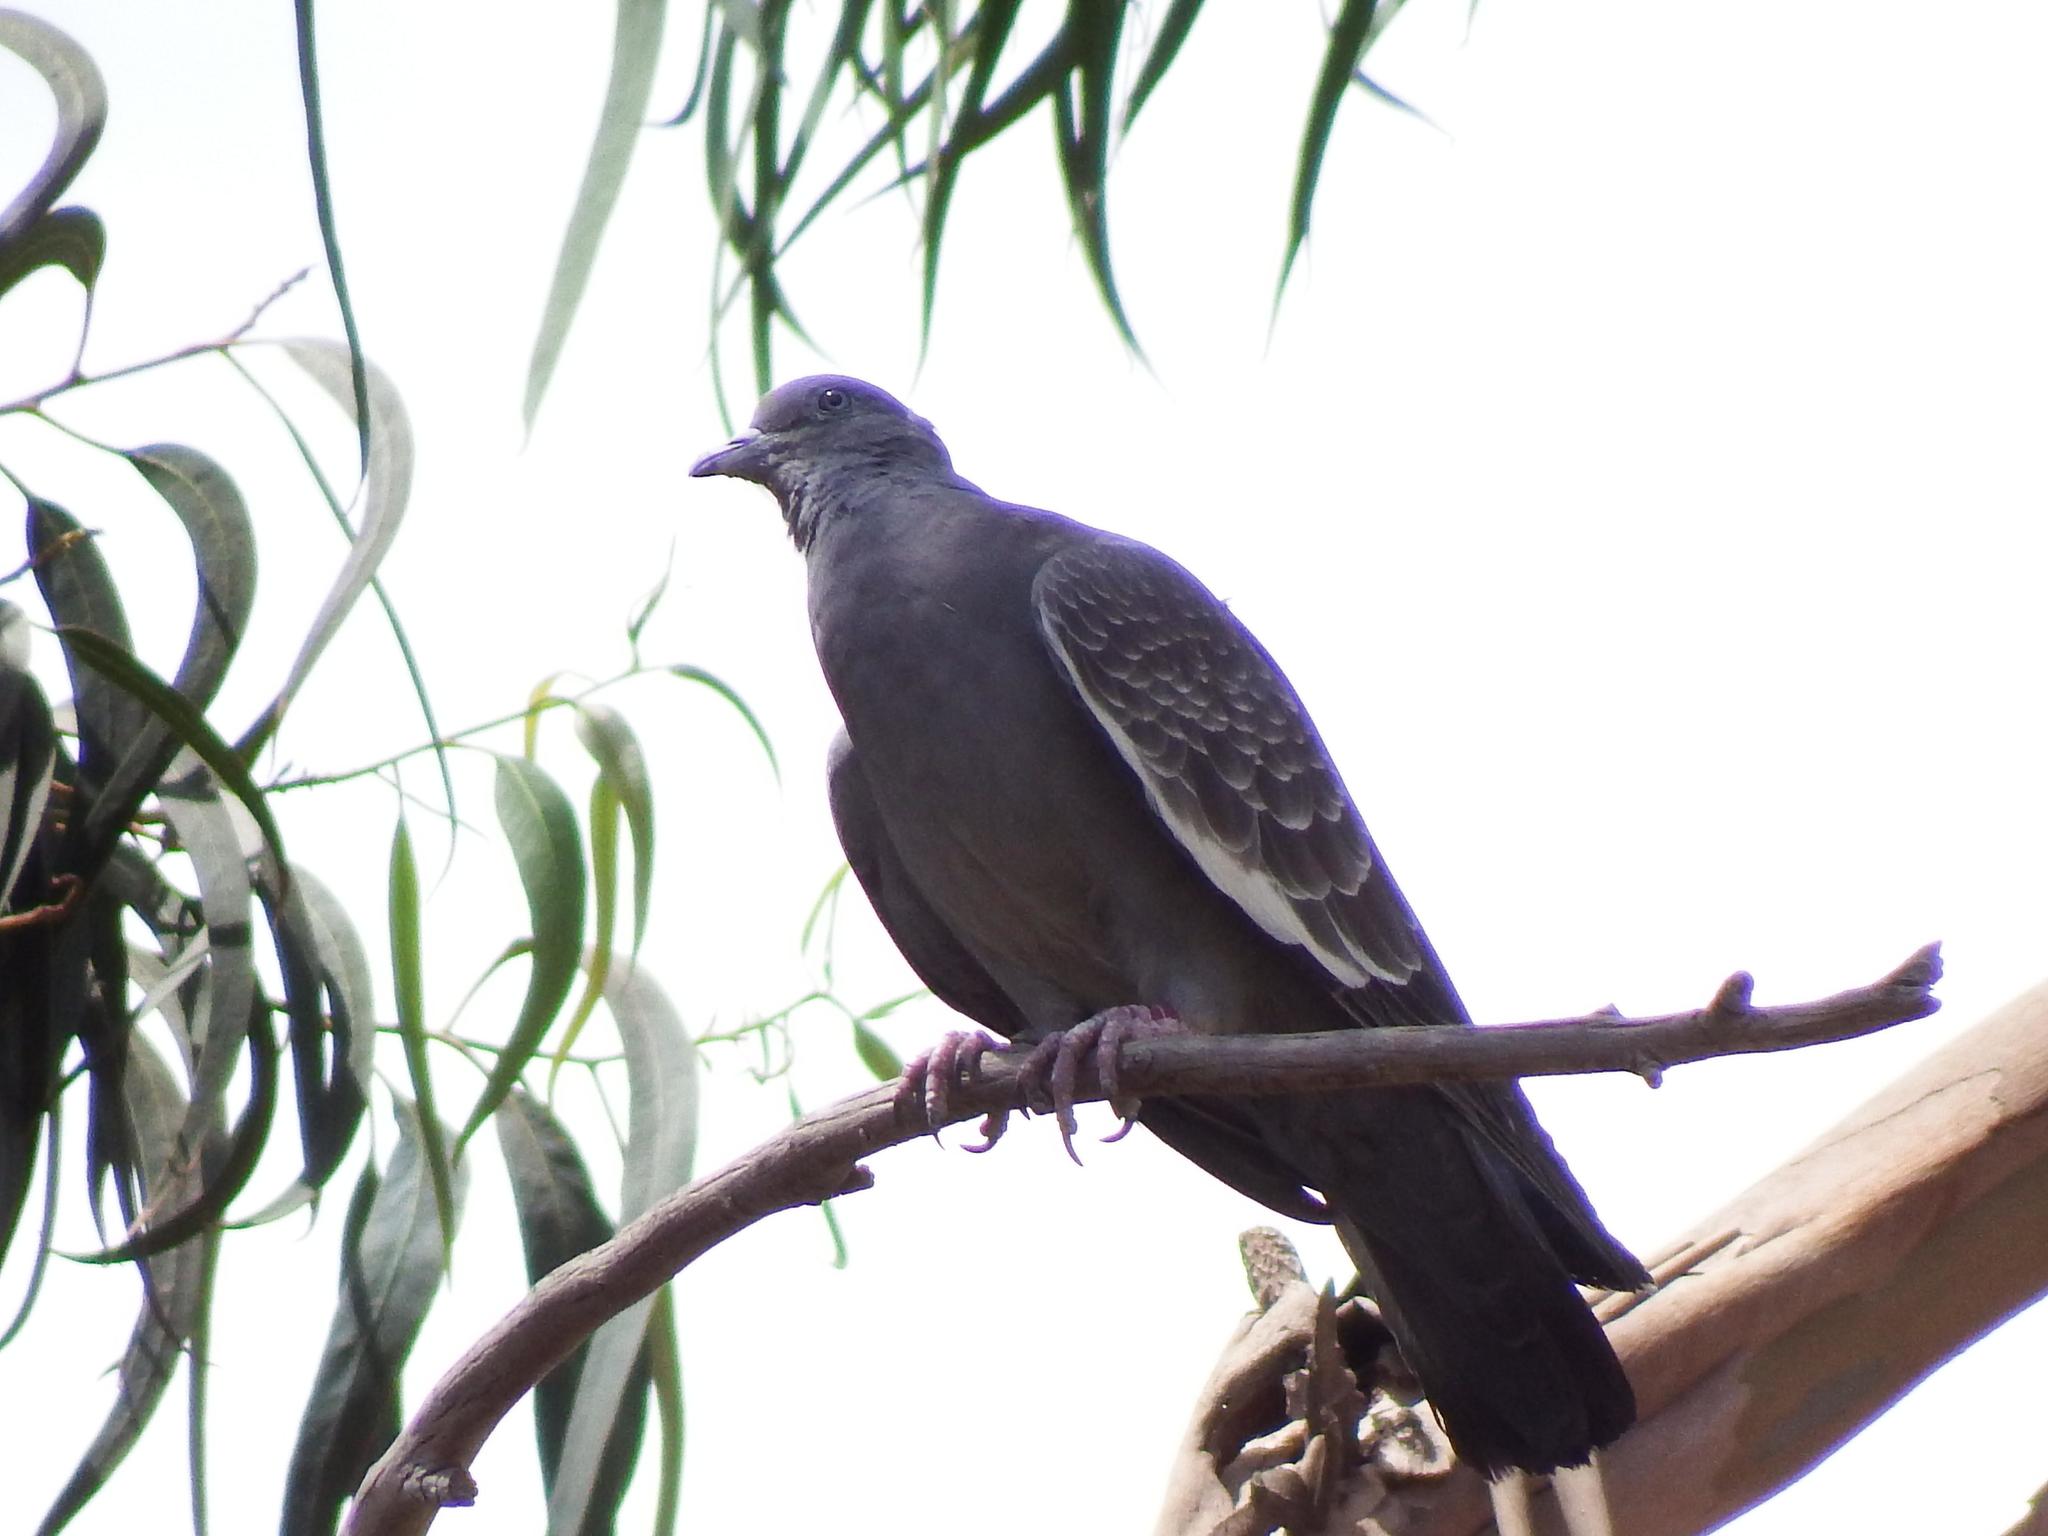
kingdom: Animalia
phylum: Chordata
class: Aves
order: Columbiformes
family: Columbidae
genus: Patagioenas
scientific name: Patagioenas maculosa
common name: Spot-winged pigeon
